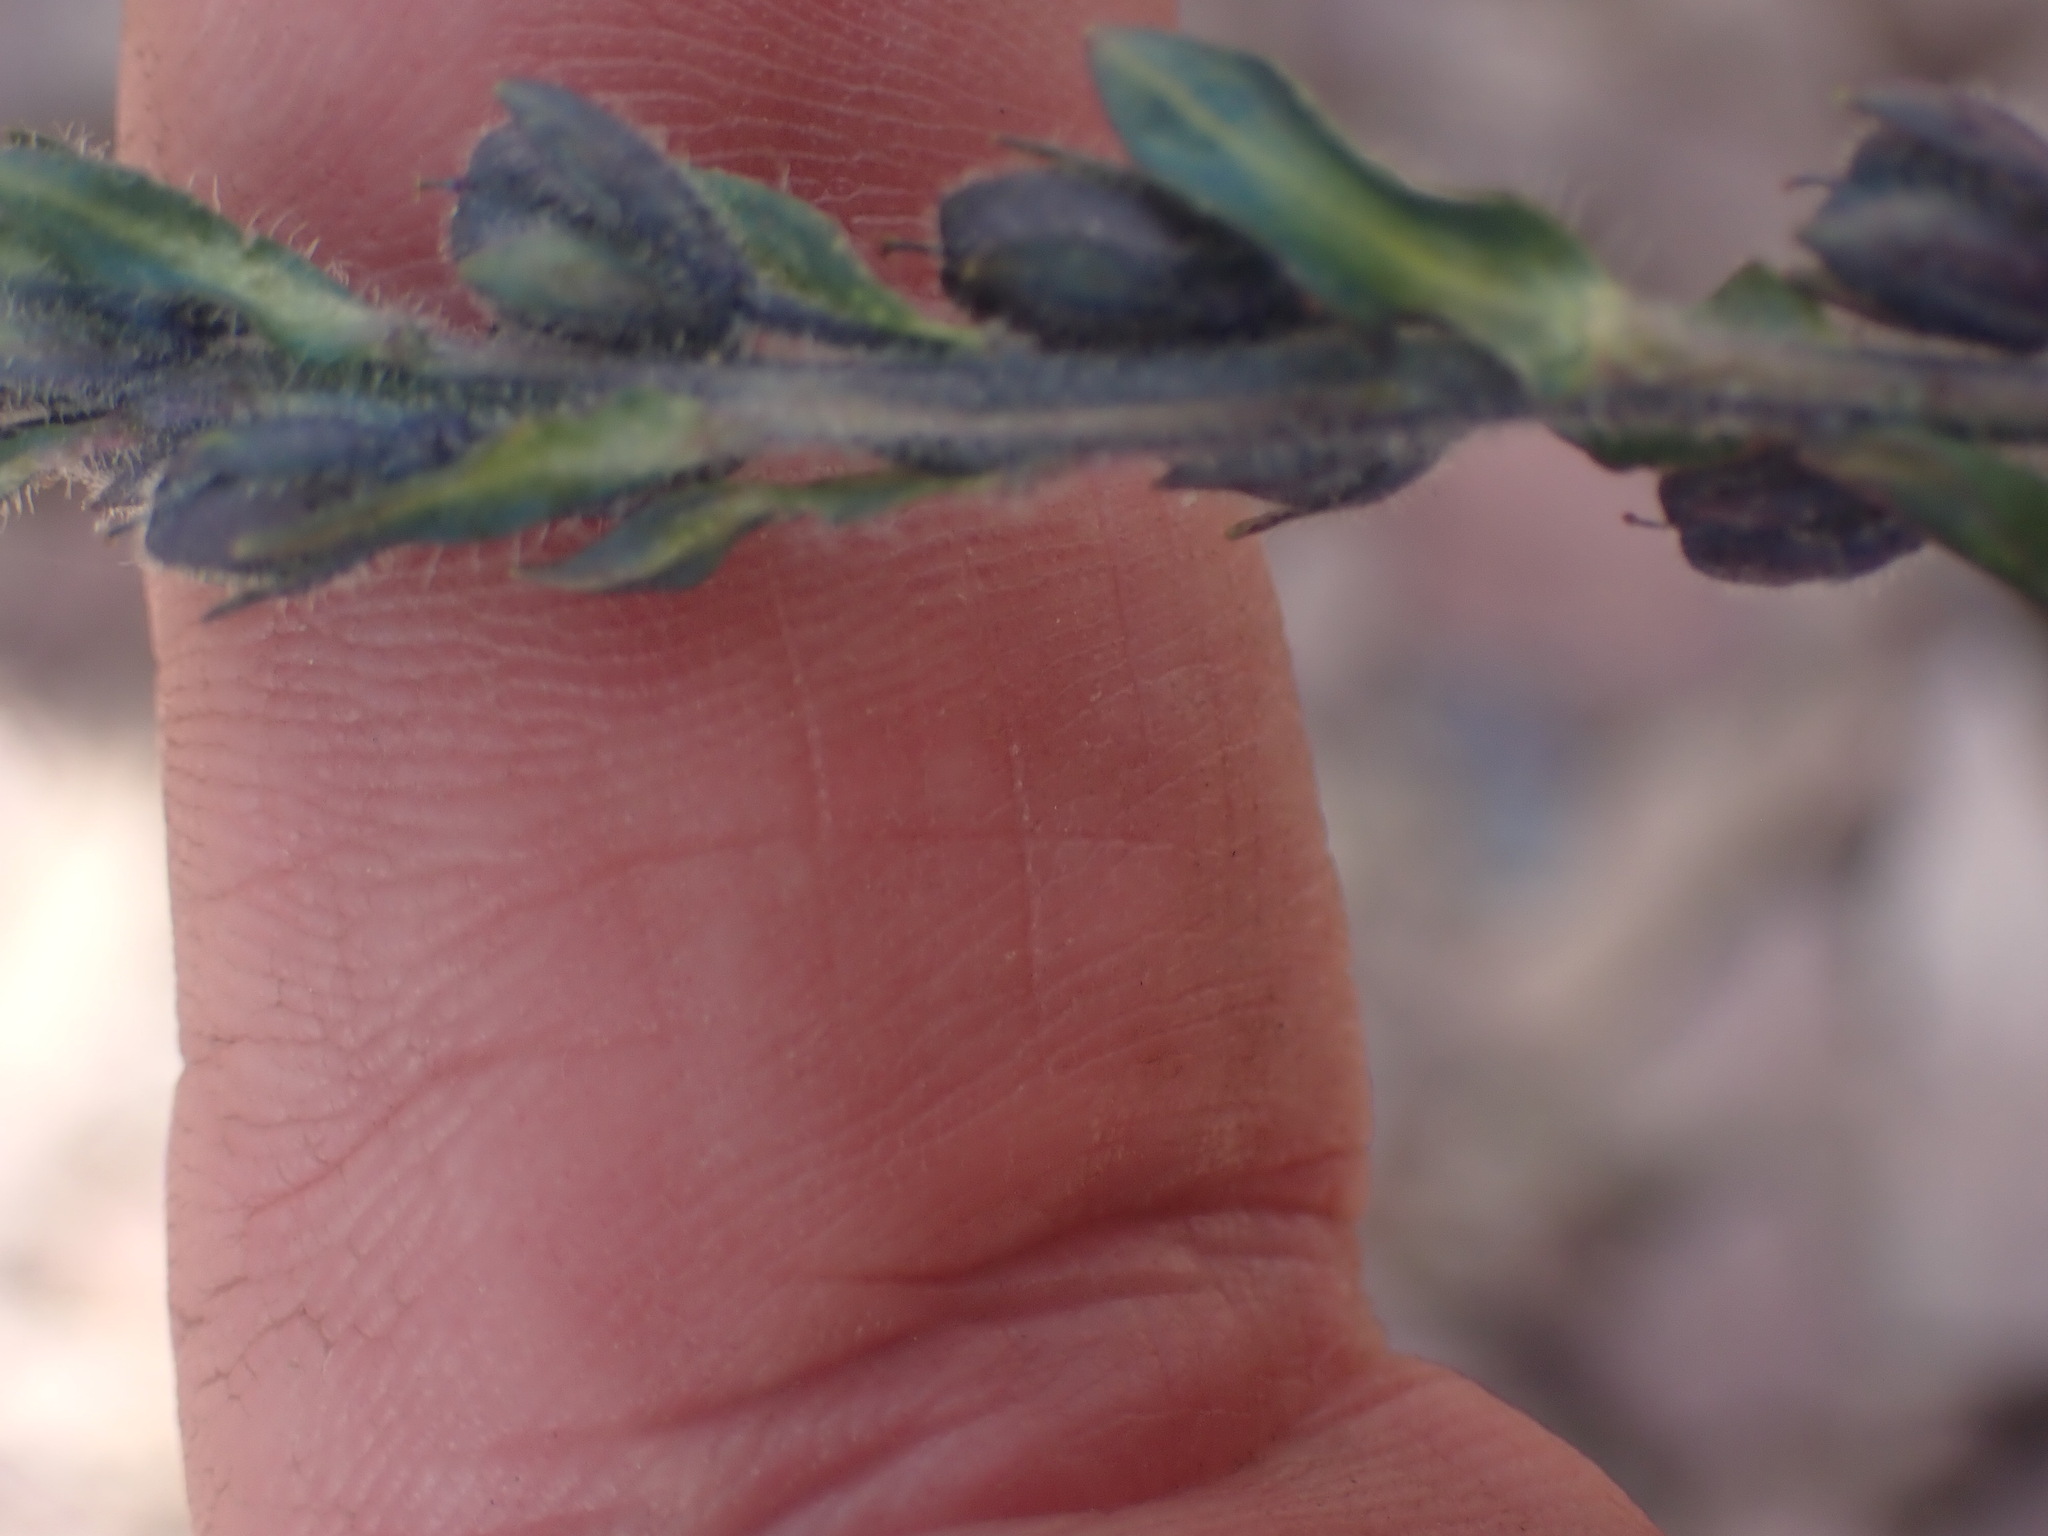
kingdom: Plantae
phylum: Tracheophyta
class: Magnoliopsida
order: Lamiales
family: Plantaginaceae
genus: Veronica
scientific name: Veronica wormskjoldii
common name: American alpine speedwell
